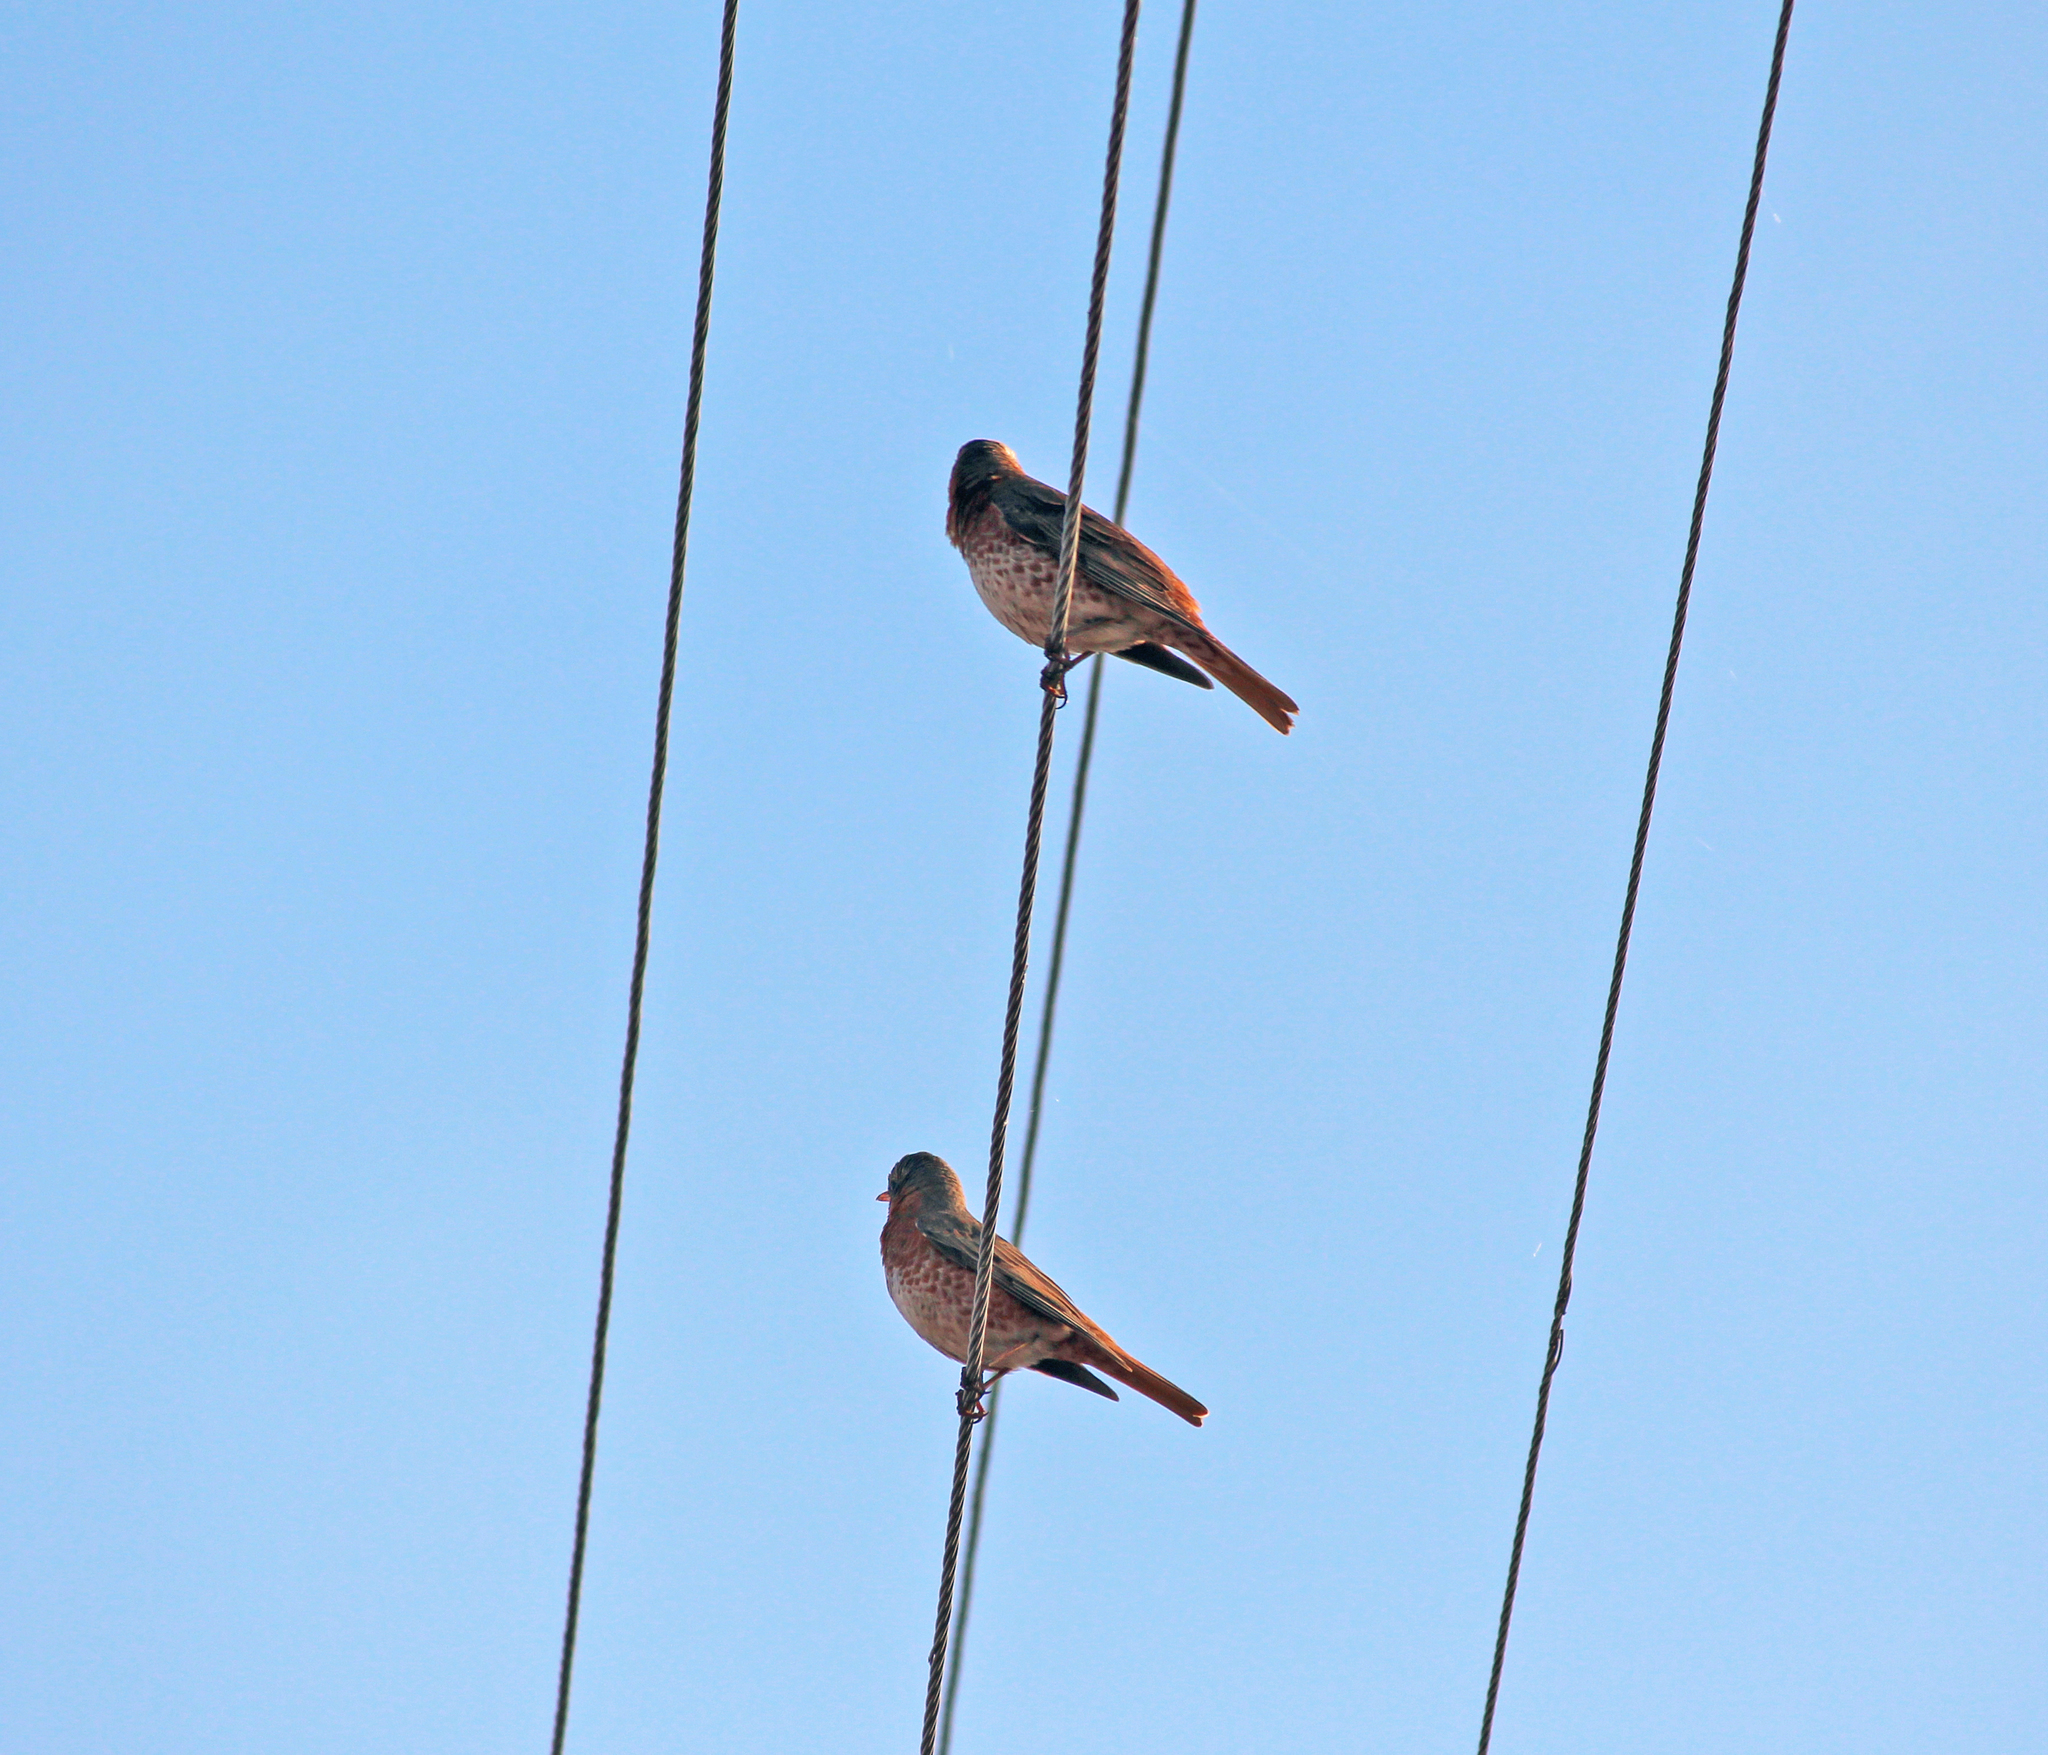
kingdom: Animalia
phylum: Chordata
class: Aves
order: Passeriformes
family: Turdidae
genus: Turdus
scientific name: Turdus naumanni
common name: Naumann's thrush
